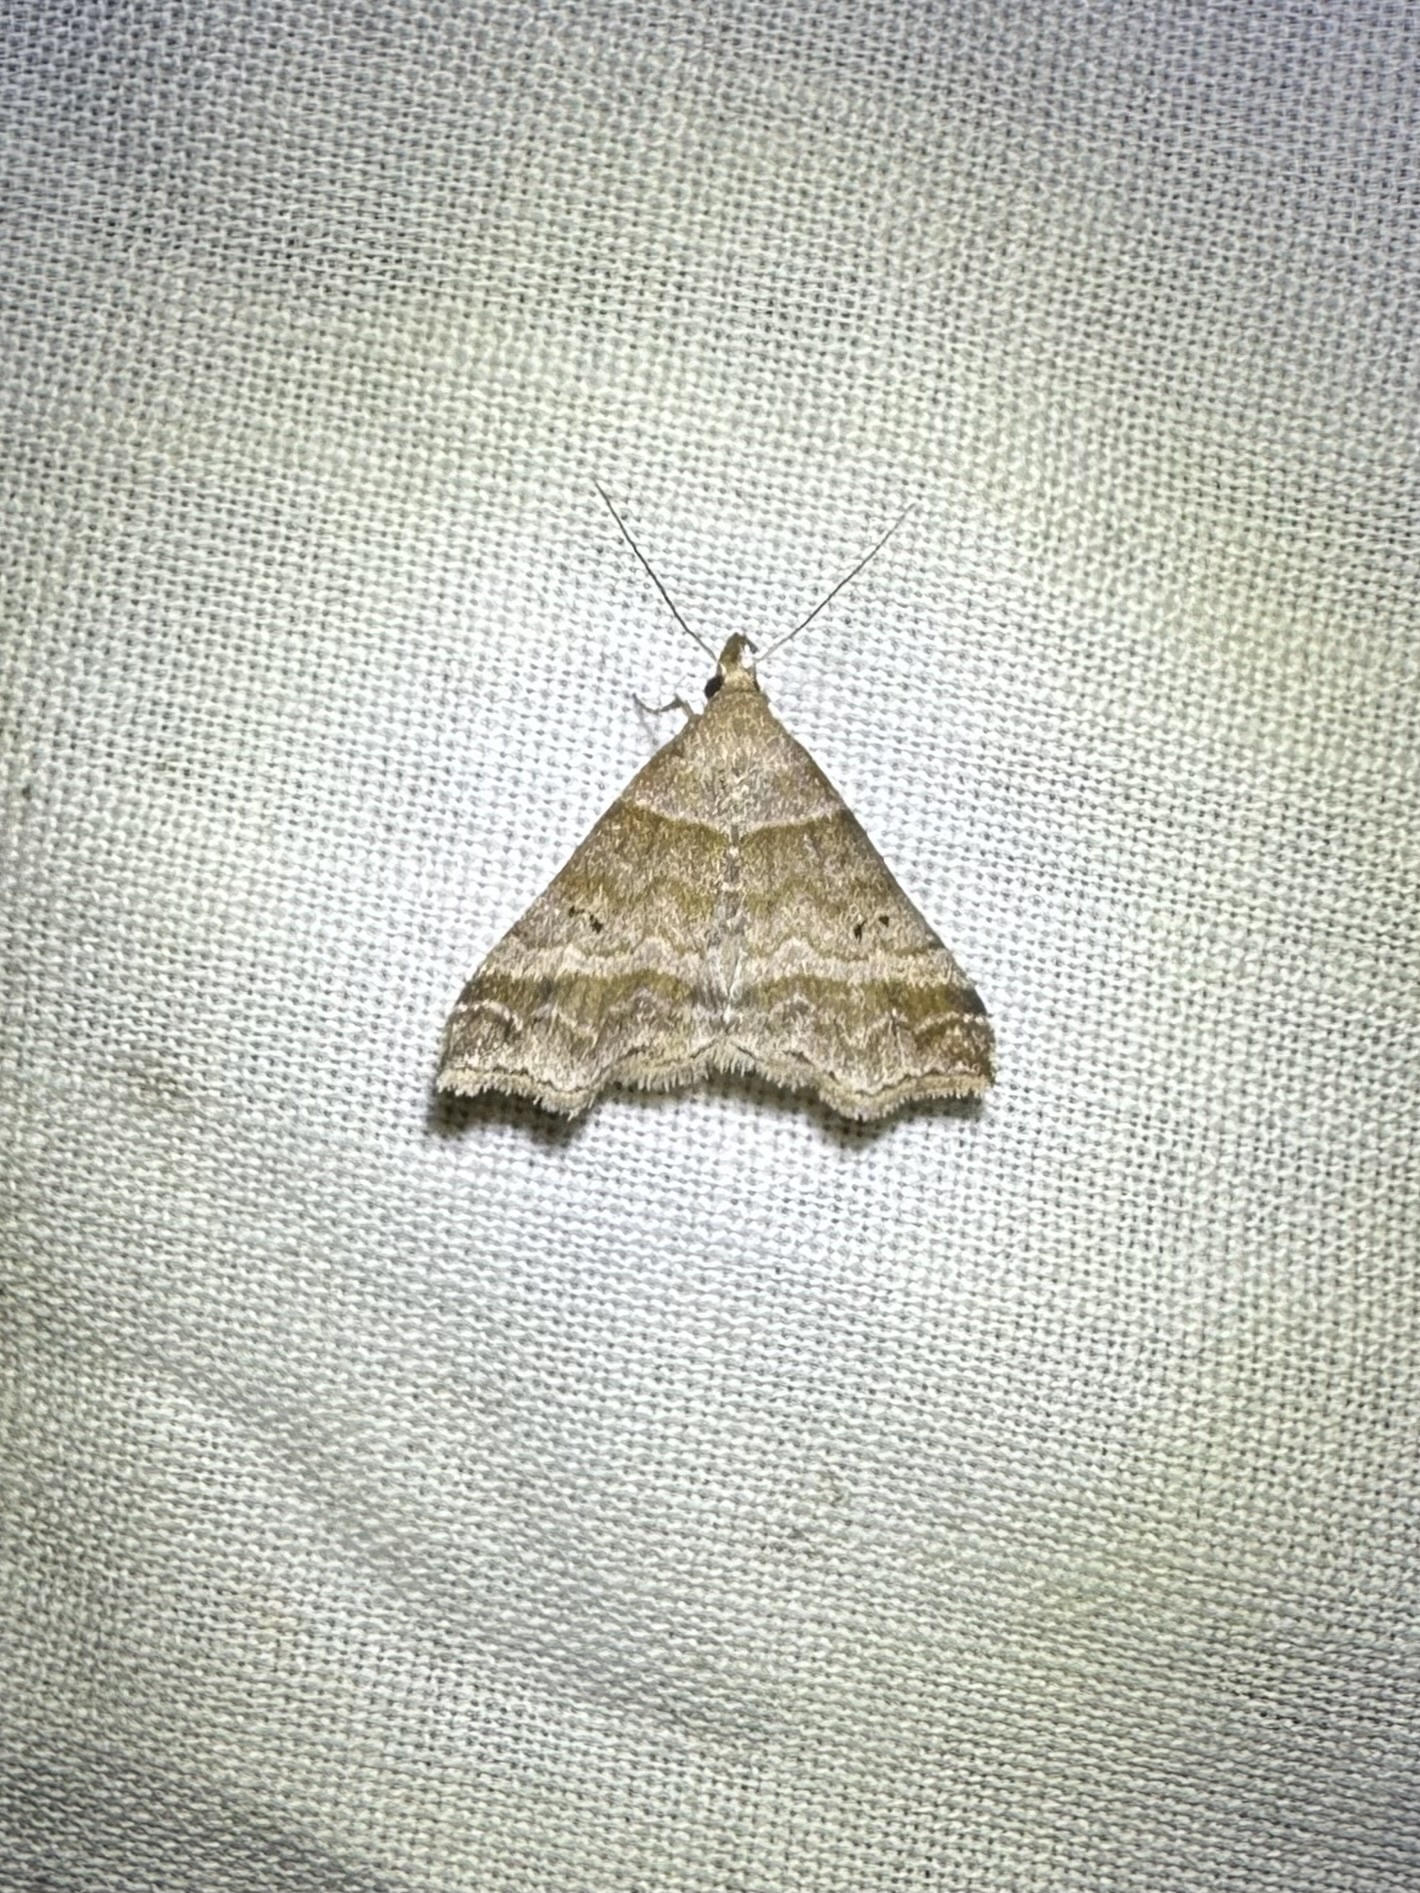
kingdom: Animalia
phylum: Arthropoda
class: Insecta
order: Lepidoptera
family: Erebidae
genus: Phaeolita
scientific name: Phaeolita pyramusalis
